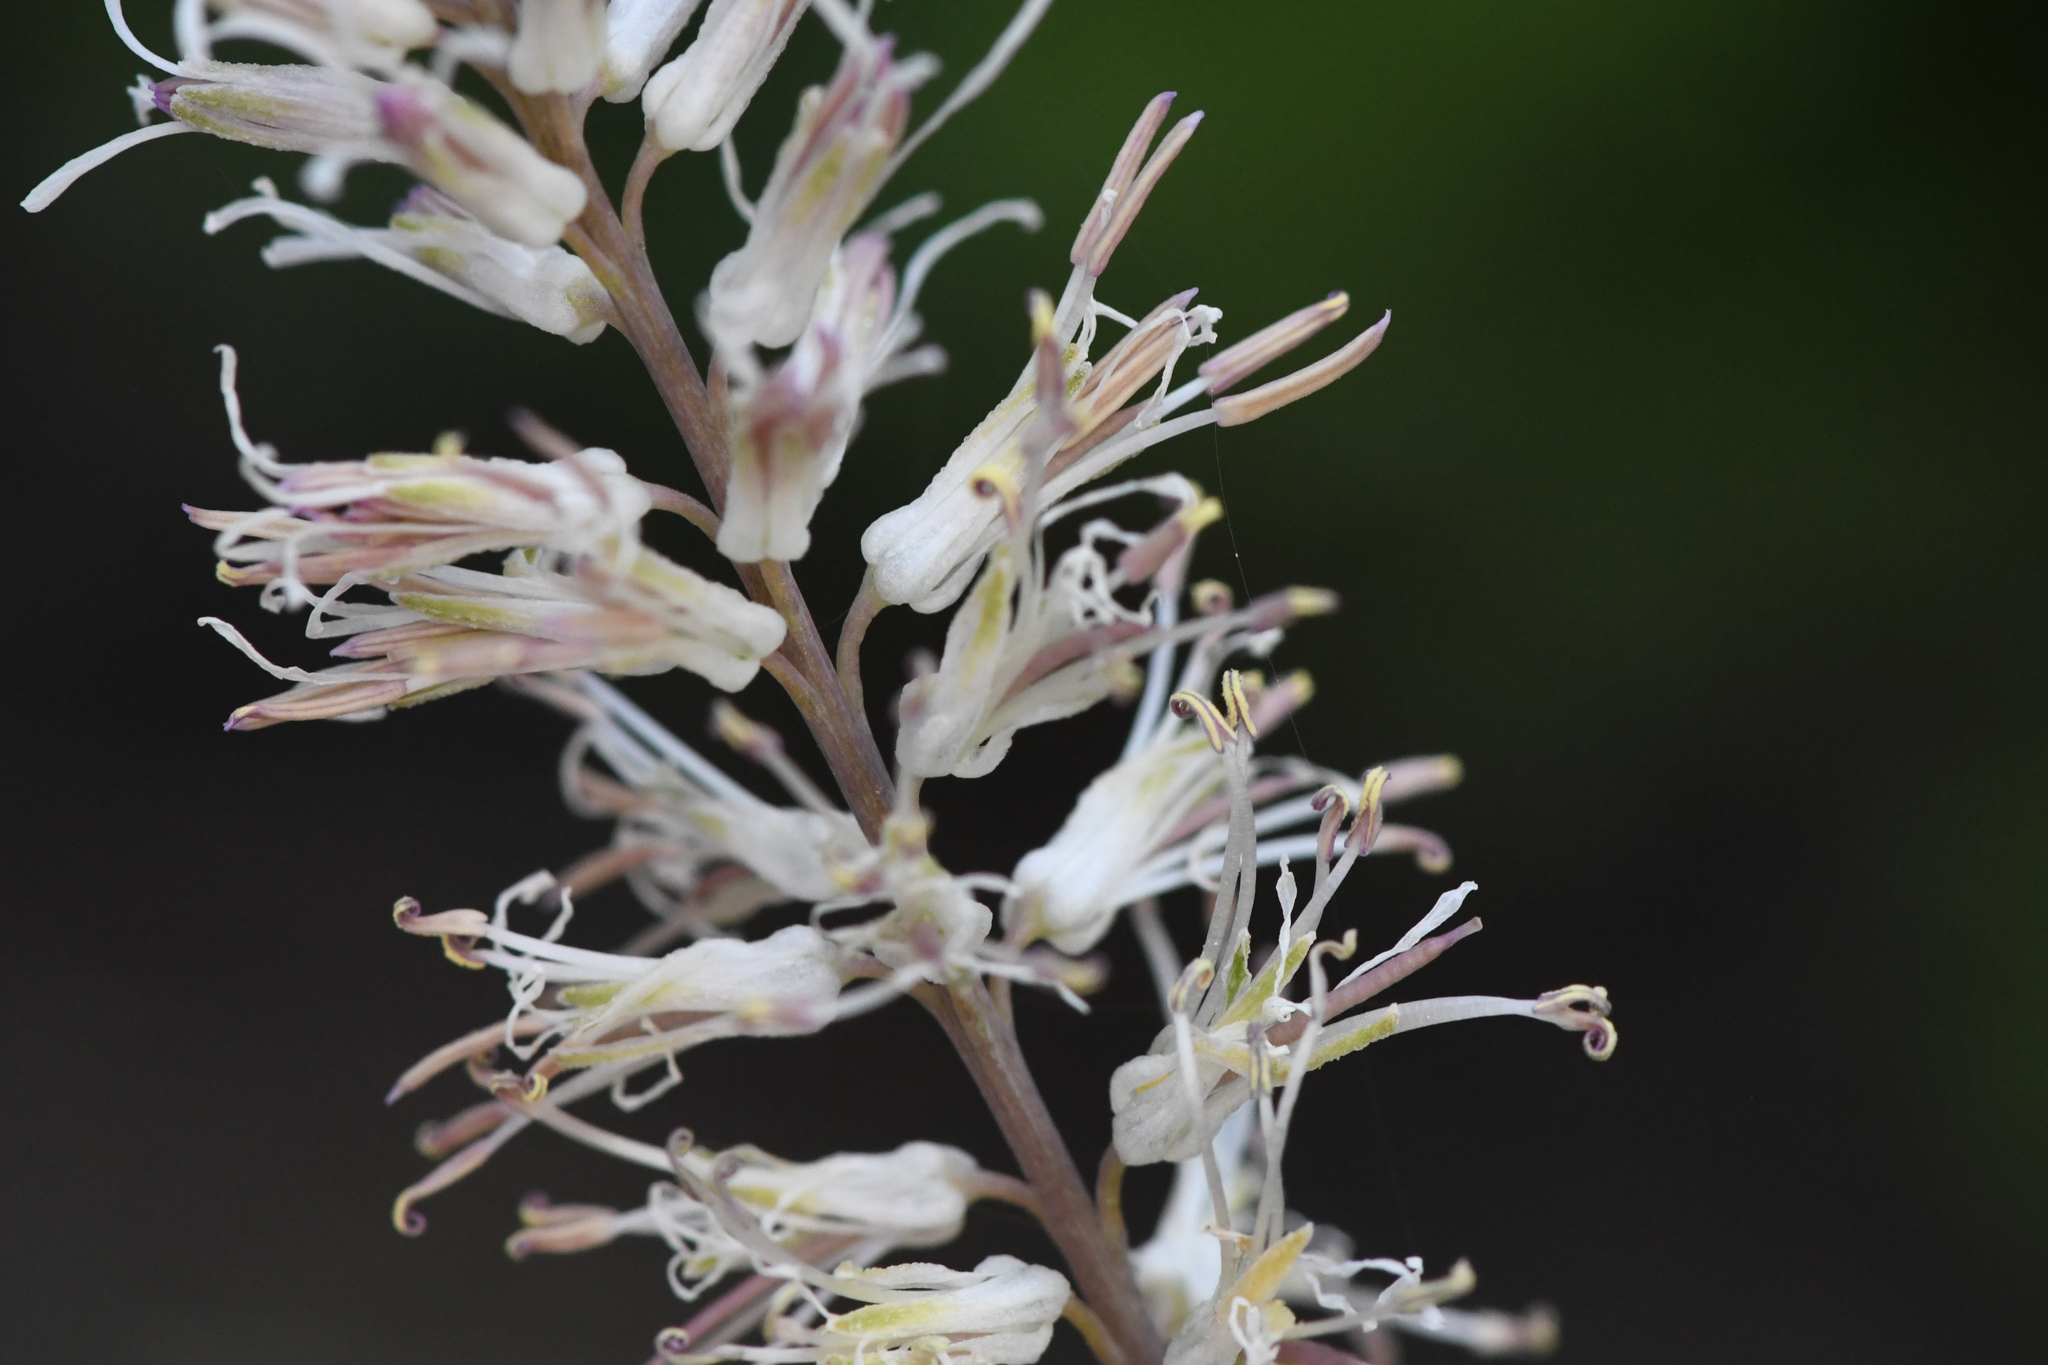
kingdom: Plantae
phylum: Tracheophyta
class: Magnoliopsida
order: Brassicales
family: Brassicaceae
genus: Thelypodium
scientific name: Thelypodium crispum
